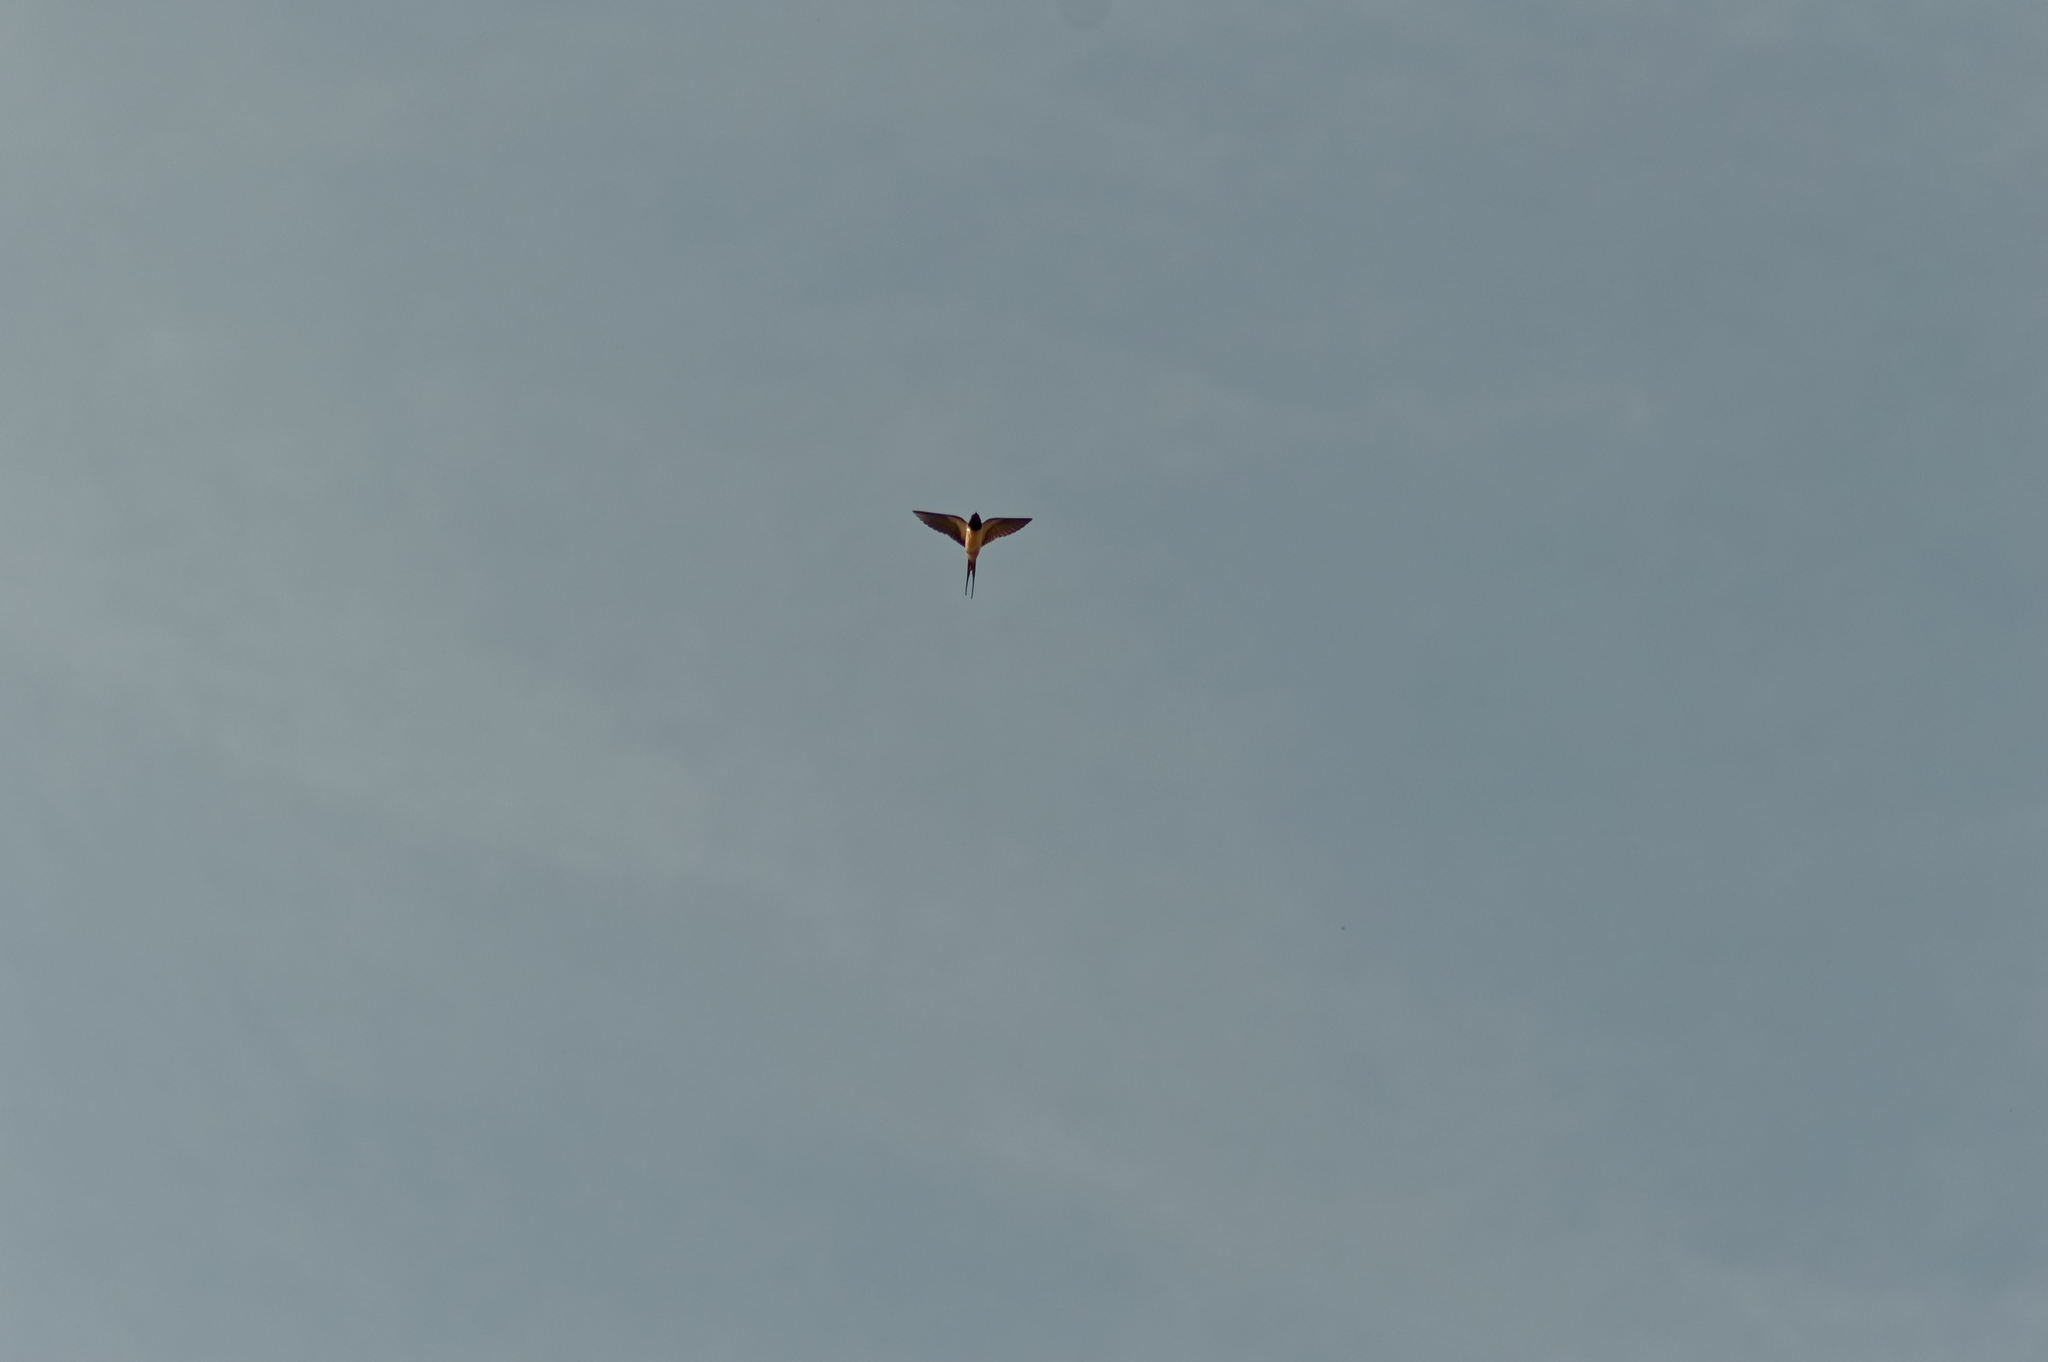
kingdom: Animalia
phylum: Chordata
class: Aves
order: Passeriformes
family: Hirundinidae
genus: Hirundo
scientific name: Hirundo rustica
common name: Barn swallow
